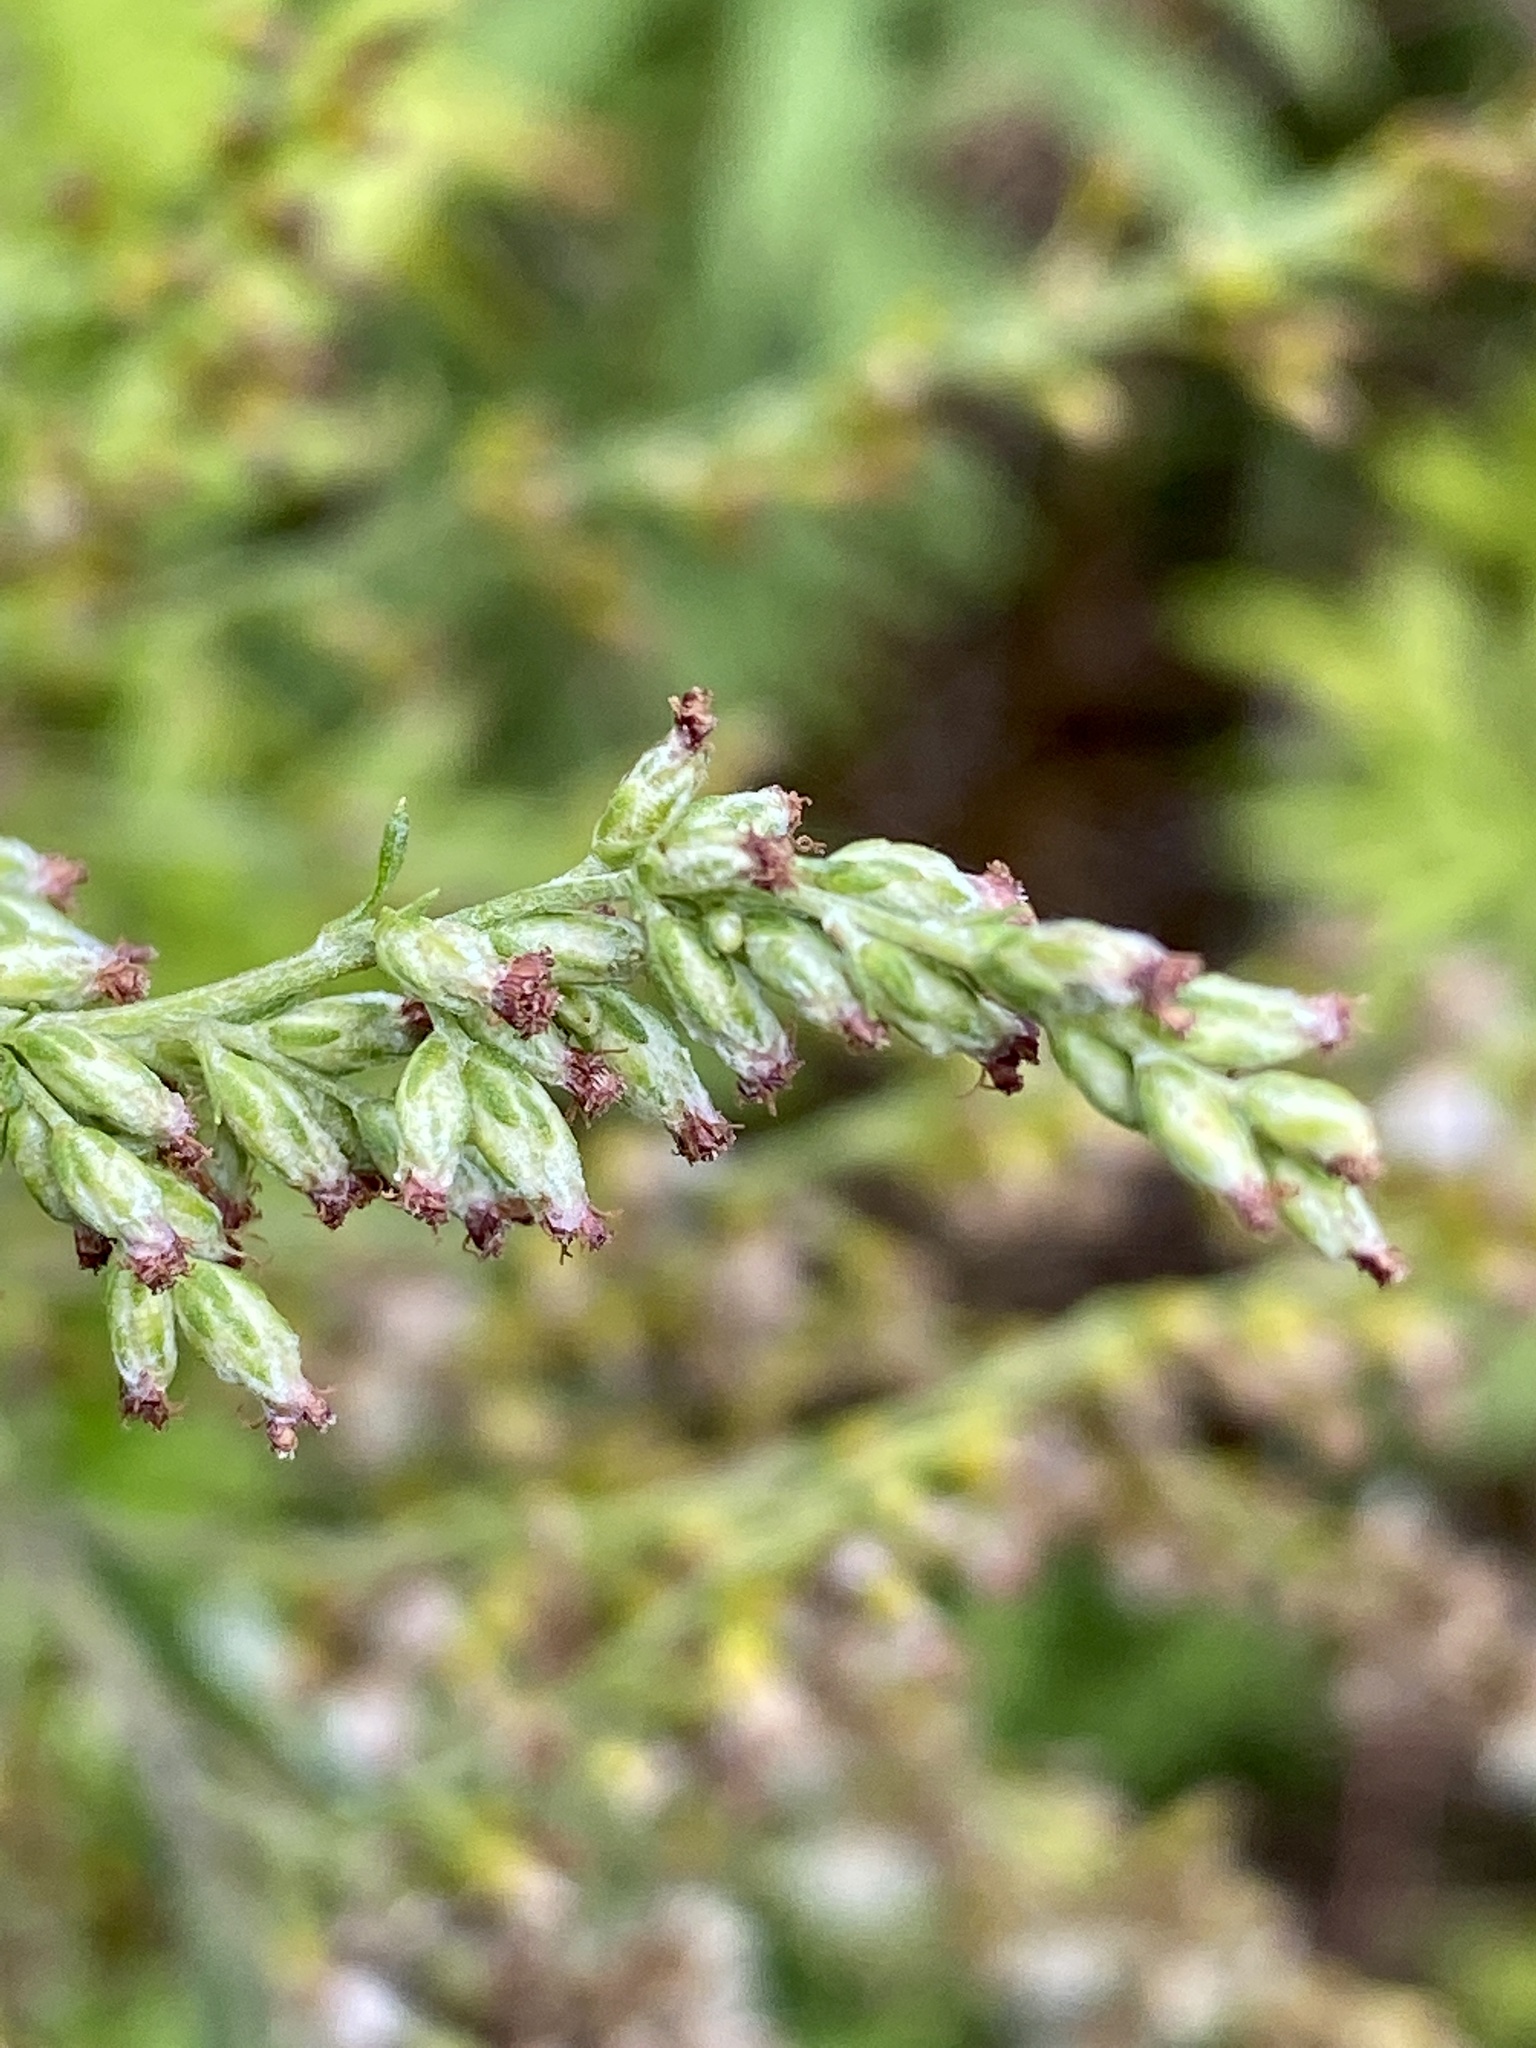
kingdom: Plantae
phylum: Tracheophyta
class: Magnoliopsida
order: Asterales
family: Asteraceae
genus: Artemisia
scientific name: Artemisia vulgaris
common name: Mugwort
